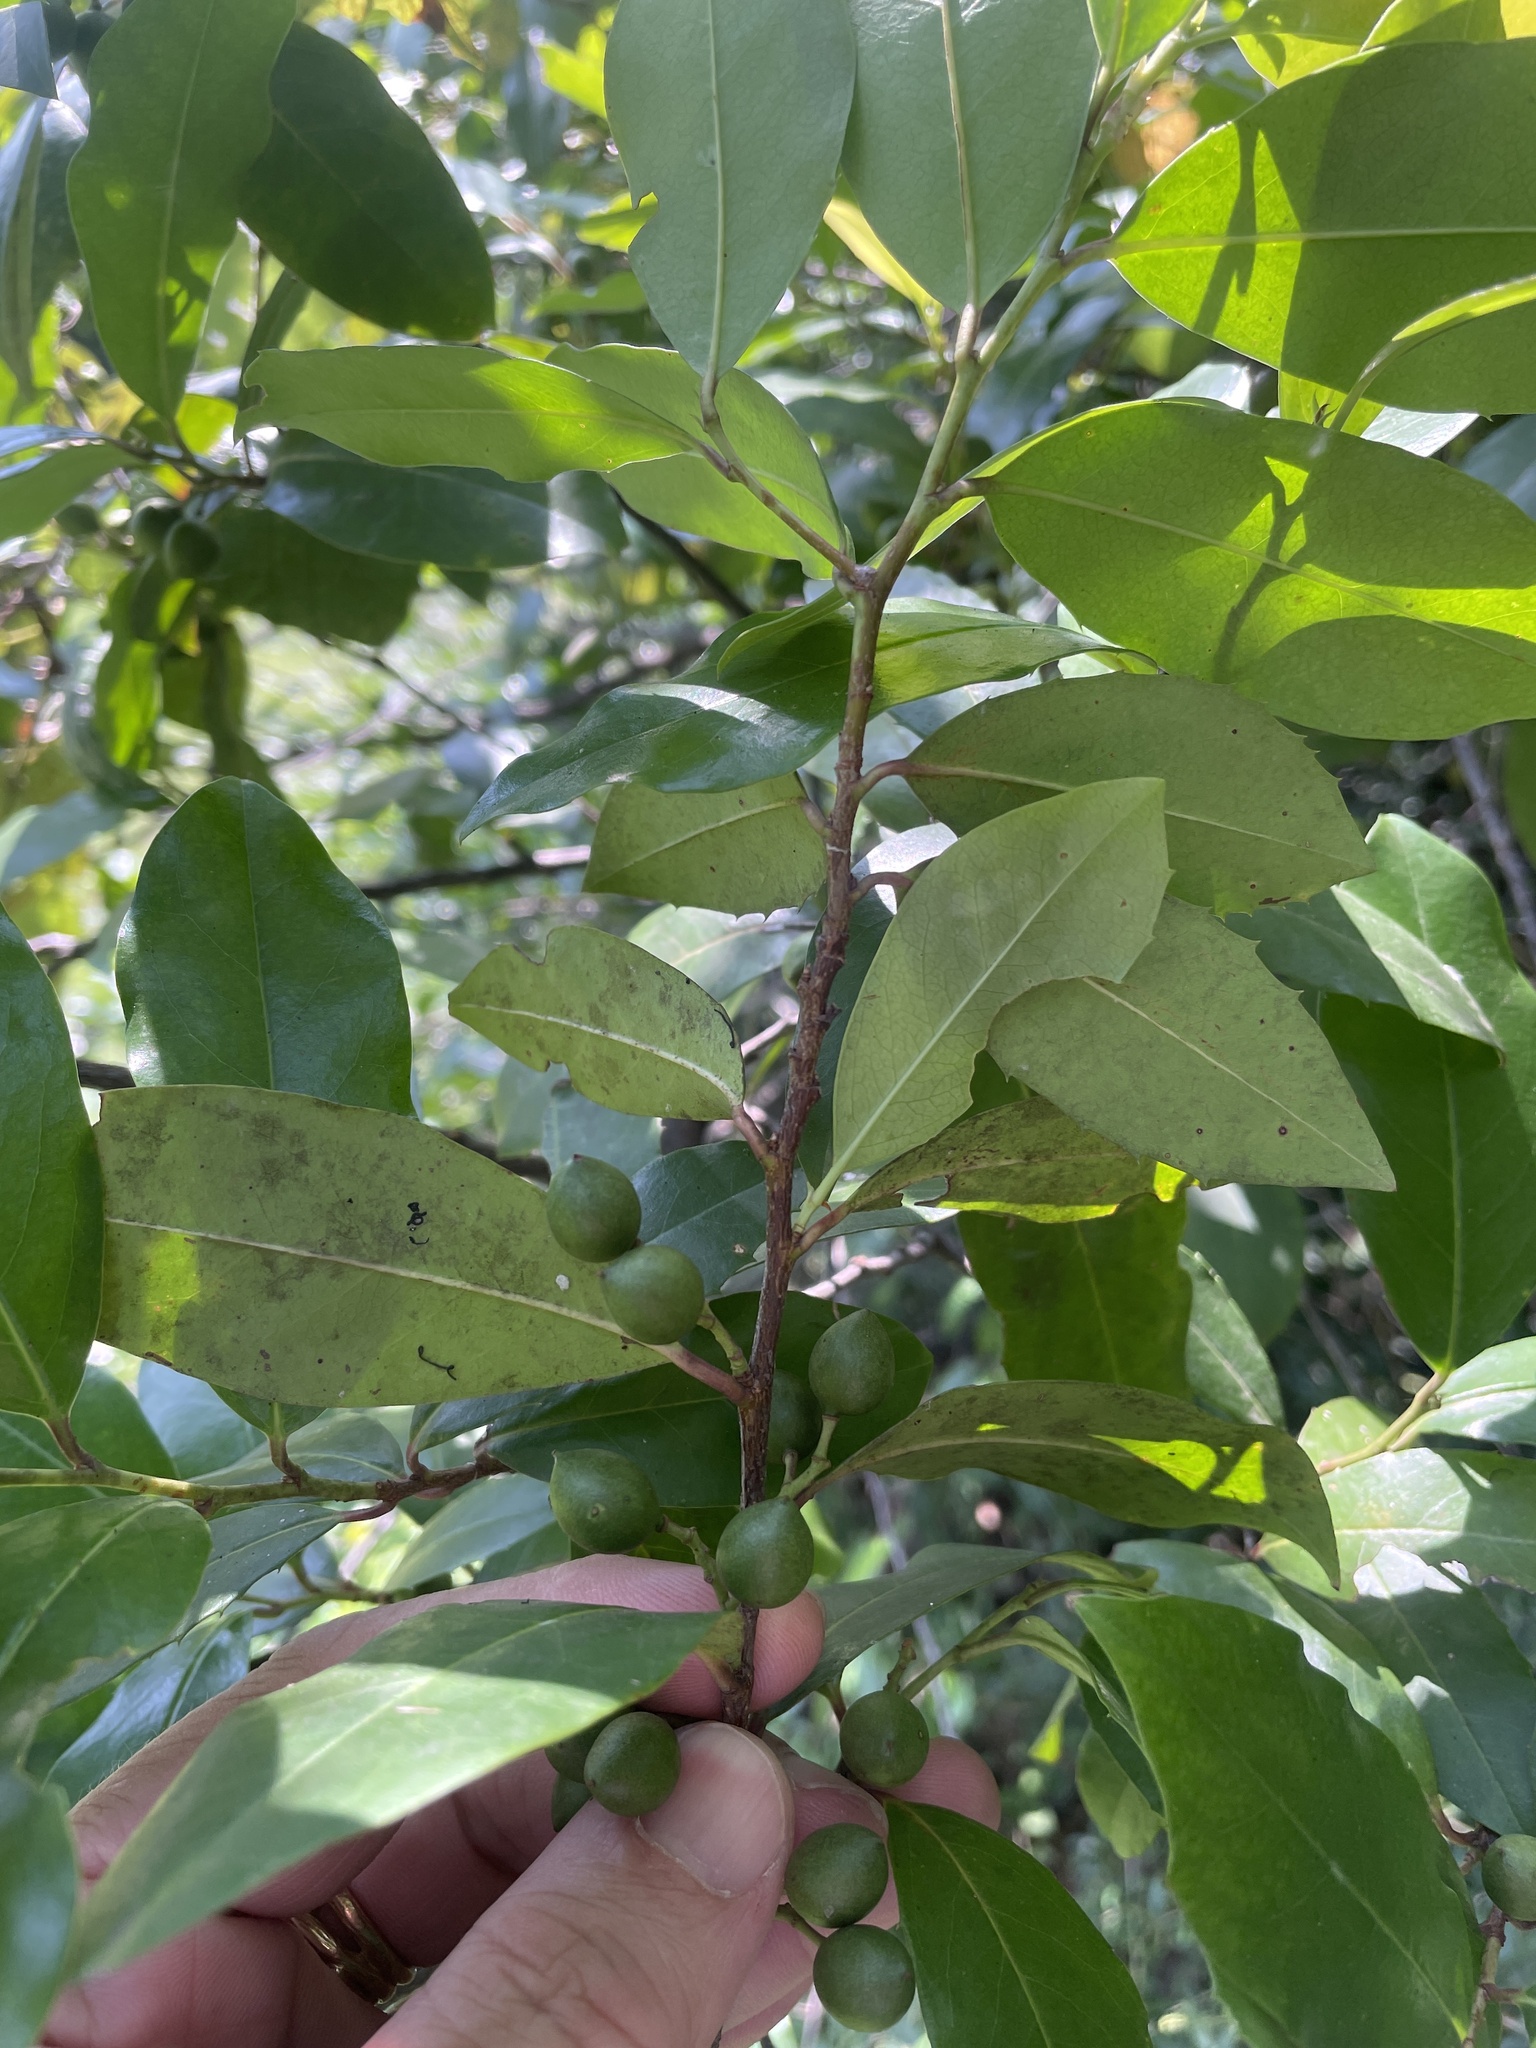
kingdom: Plantae
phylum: Tracheophyta
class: Magnoliopsida
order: Rosales
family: Rosaceae
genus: Prunus
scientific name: Prunus caroliniana
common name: Carolina laurel cherry
